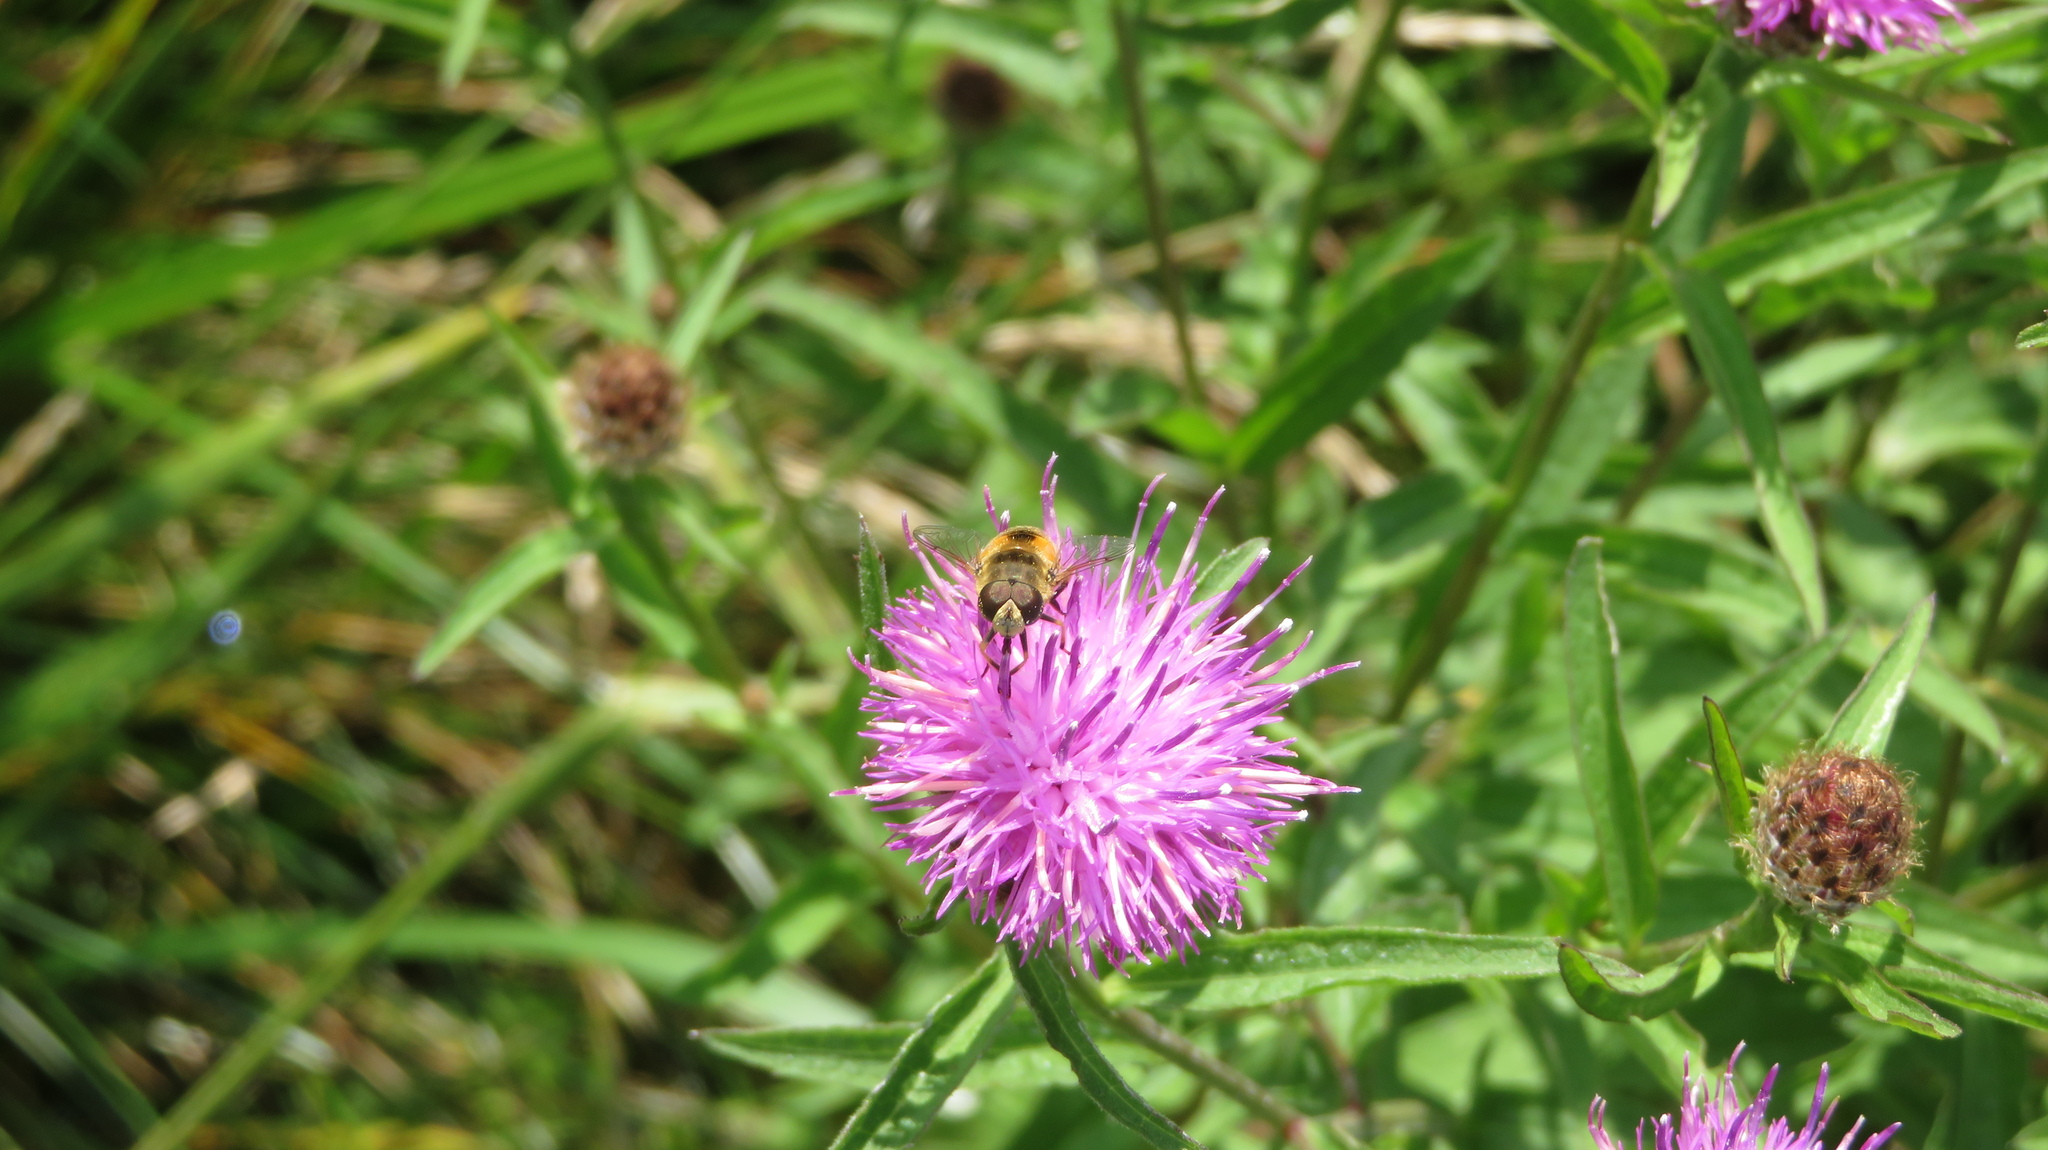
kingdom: Animalia
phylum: Arthropoda
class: Insecta
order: Diptera
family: Syrphidae
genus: Eristalis
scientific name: Eristalis arbustorum
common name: Hover fly
